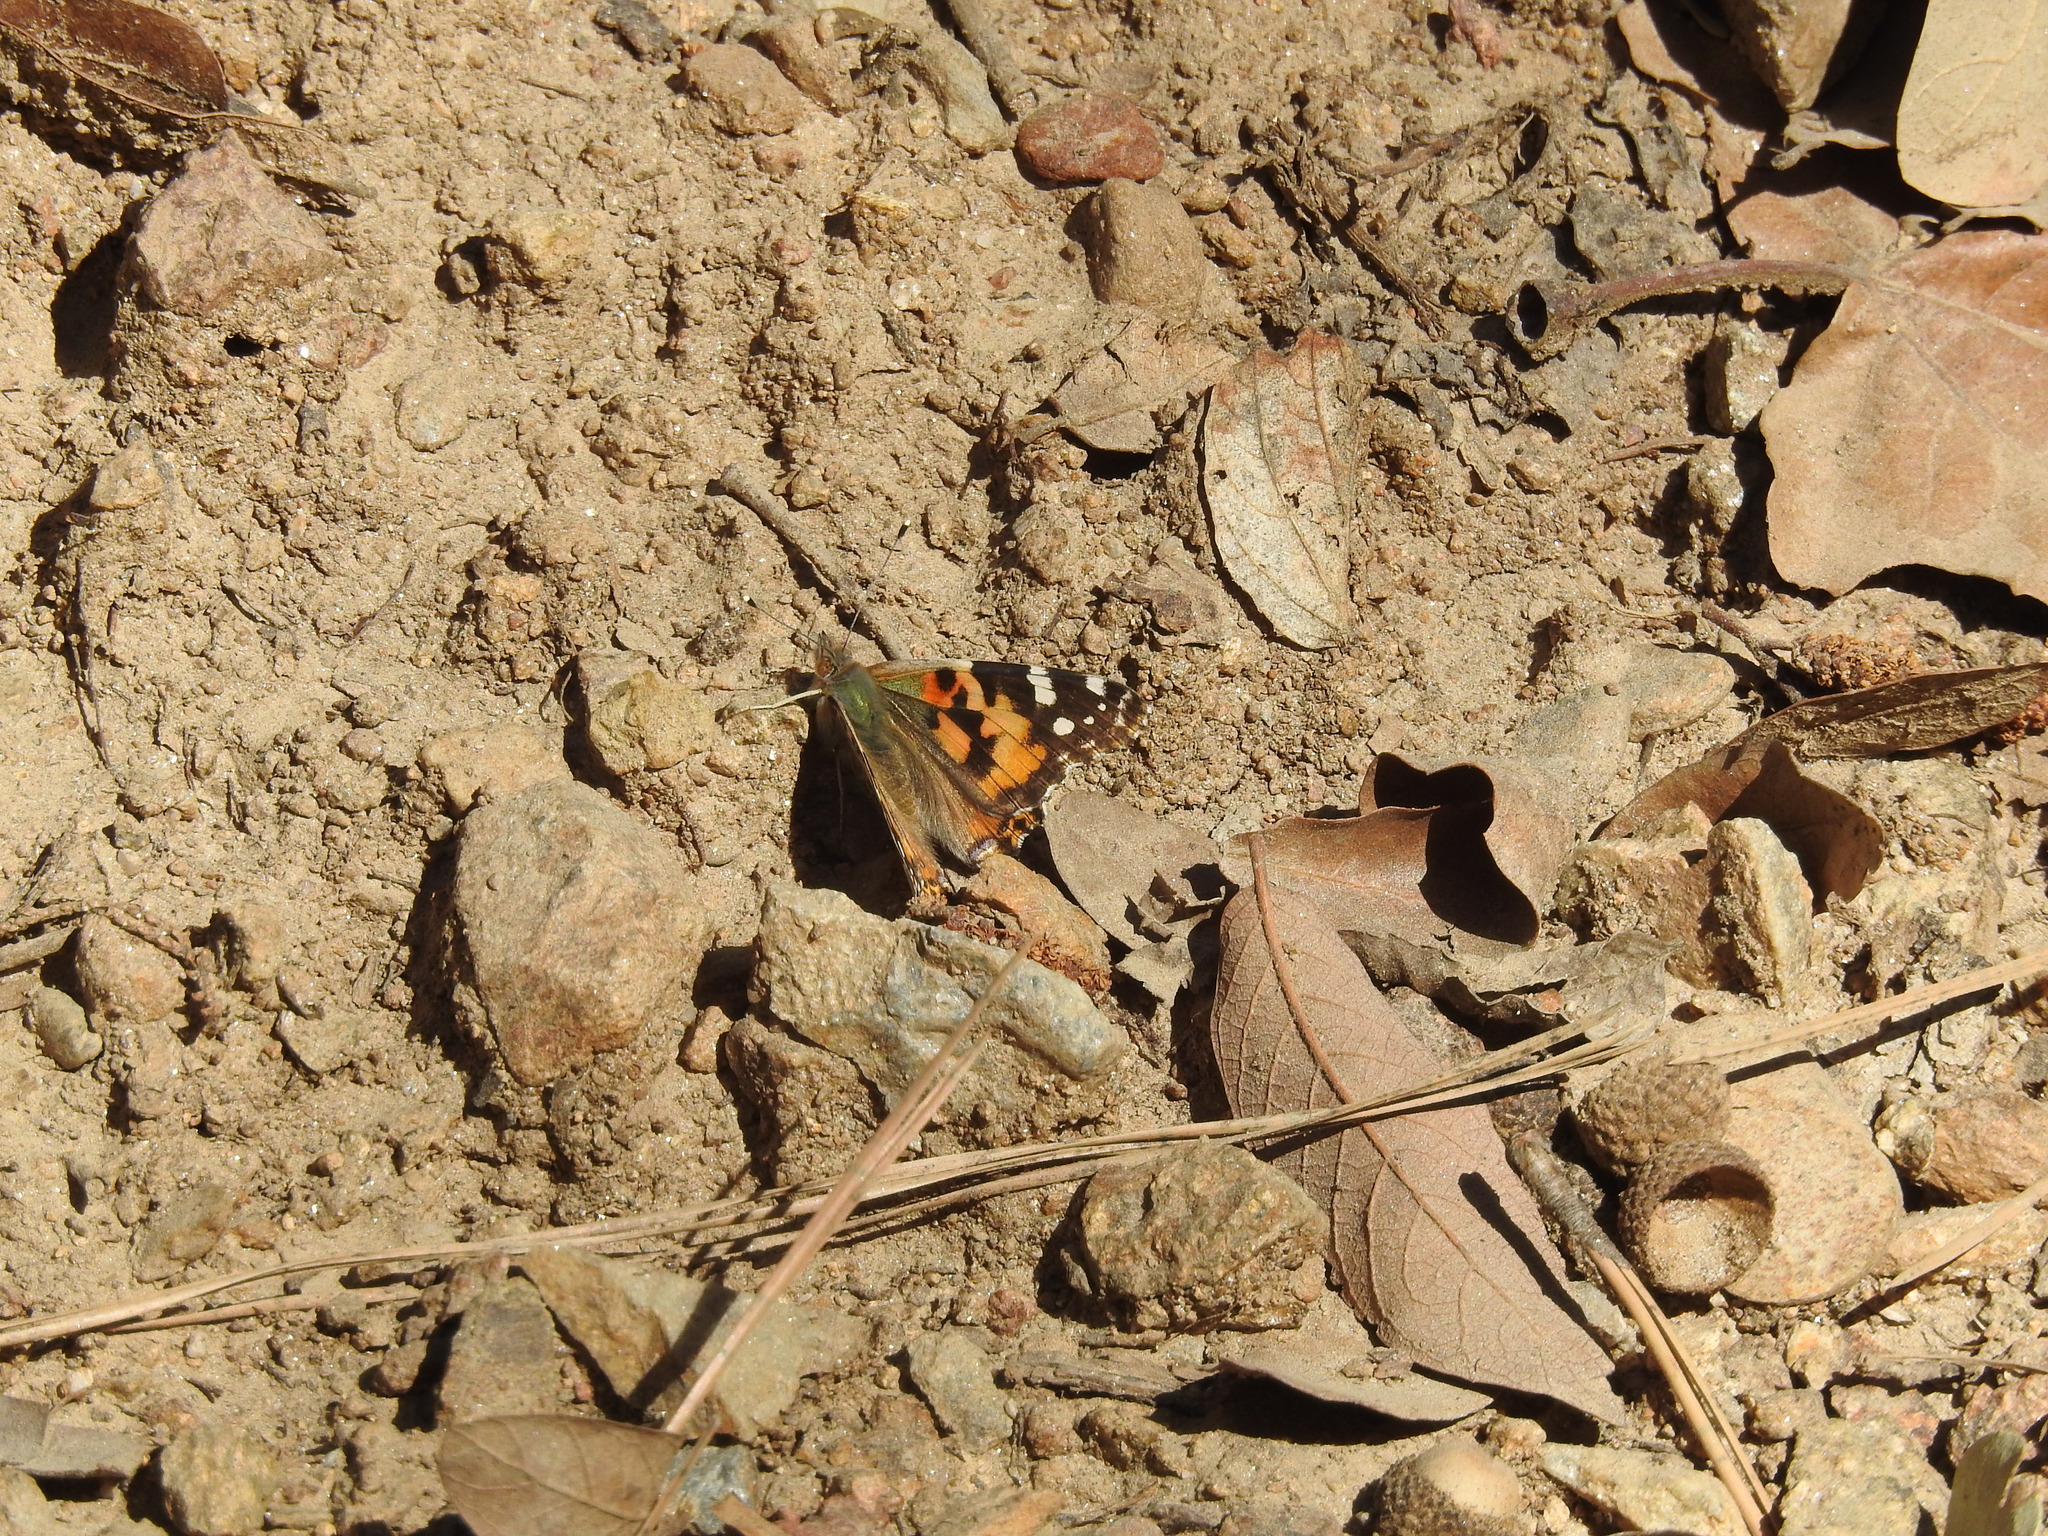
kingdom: Animalia
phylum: Arthropoda
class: Insecta
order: Lepidoptera
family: Nymphalidae
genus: Vanessa
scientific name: Vanessa cardui
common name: Painted lady
